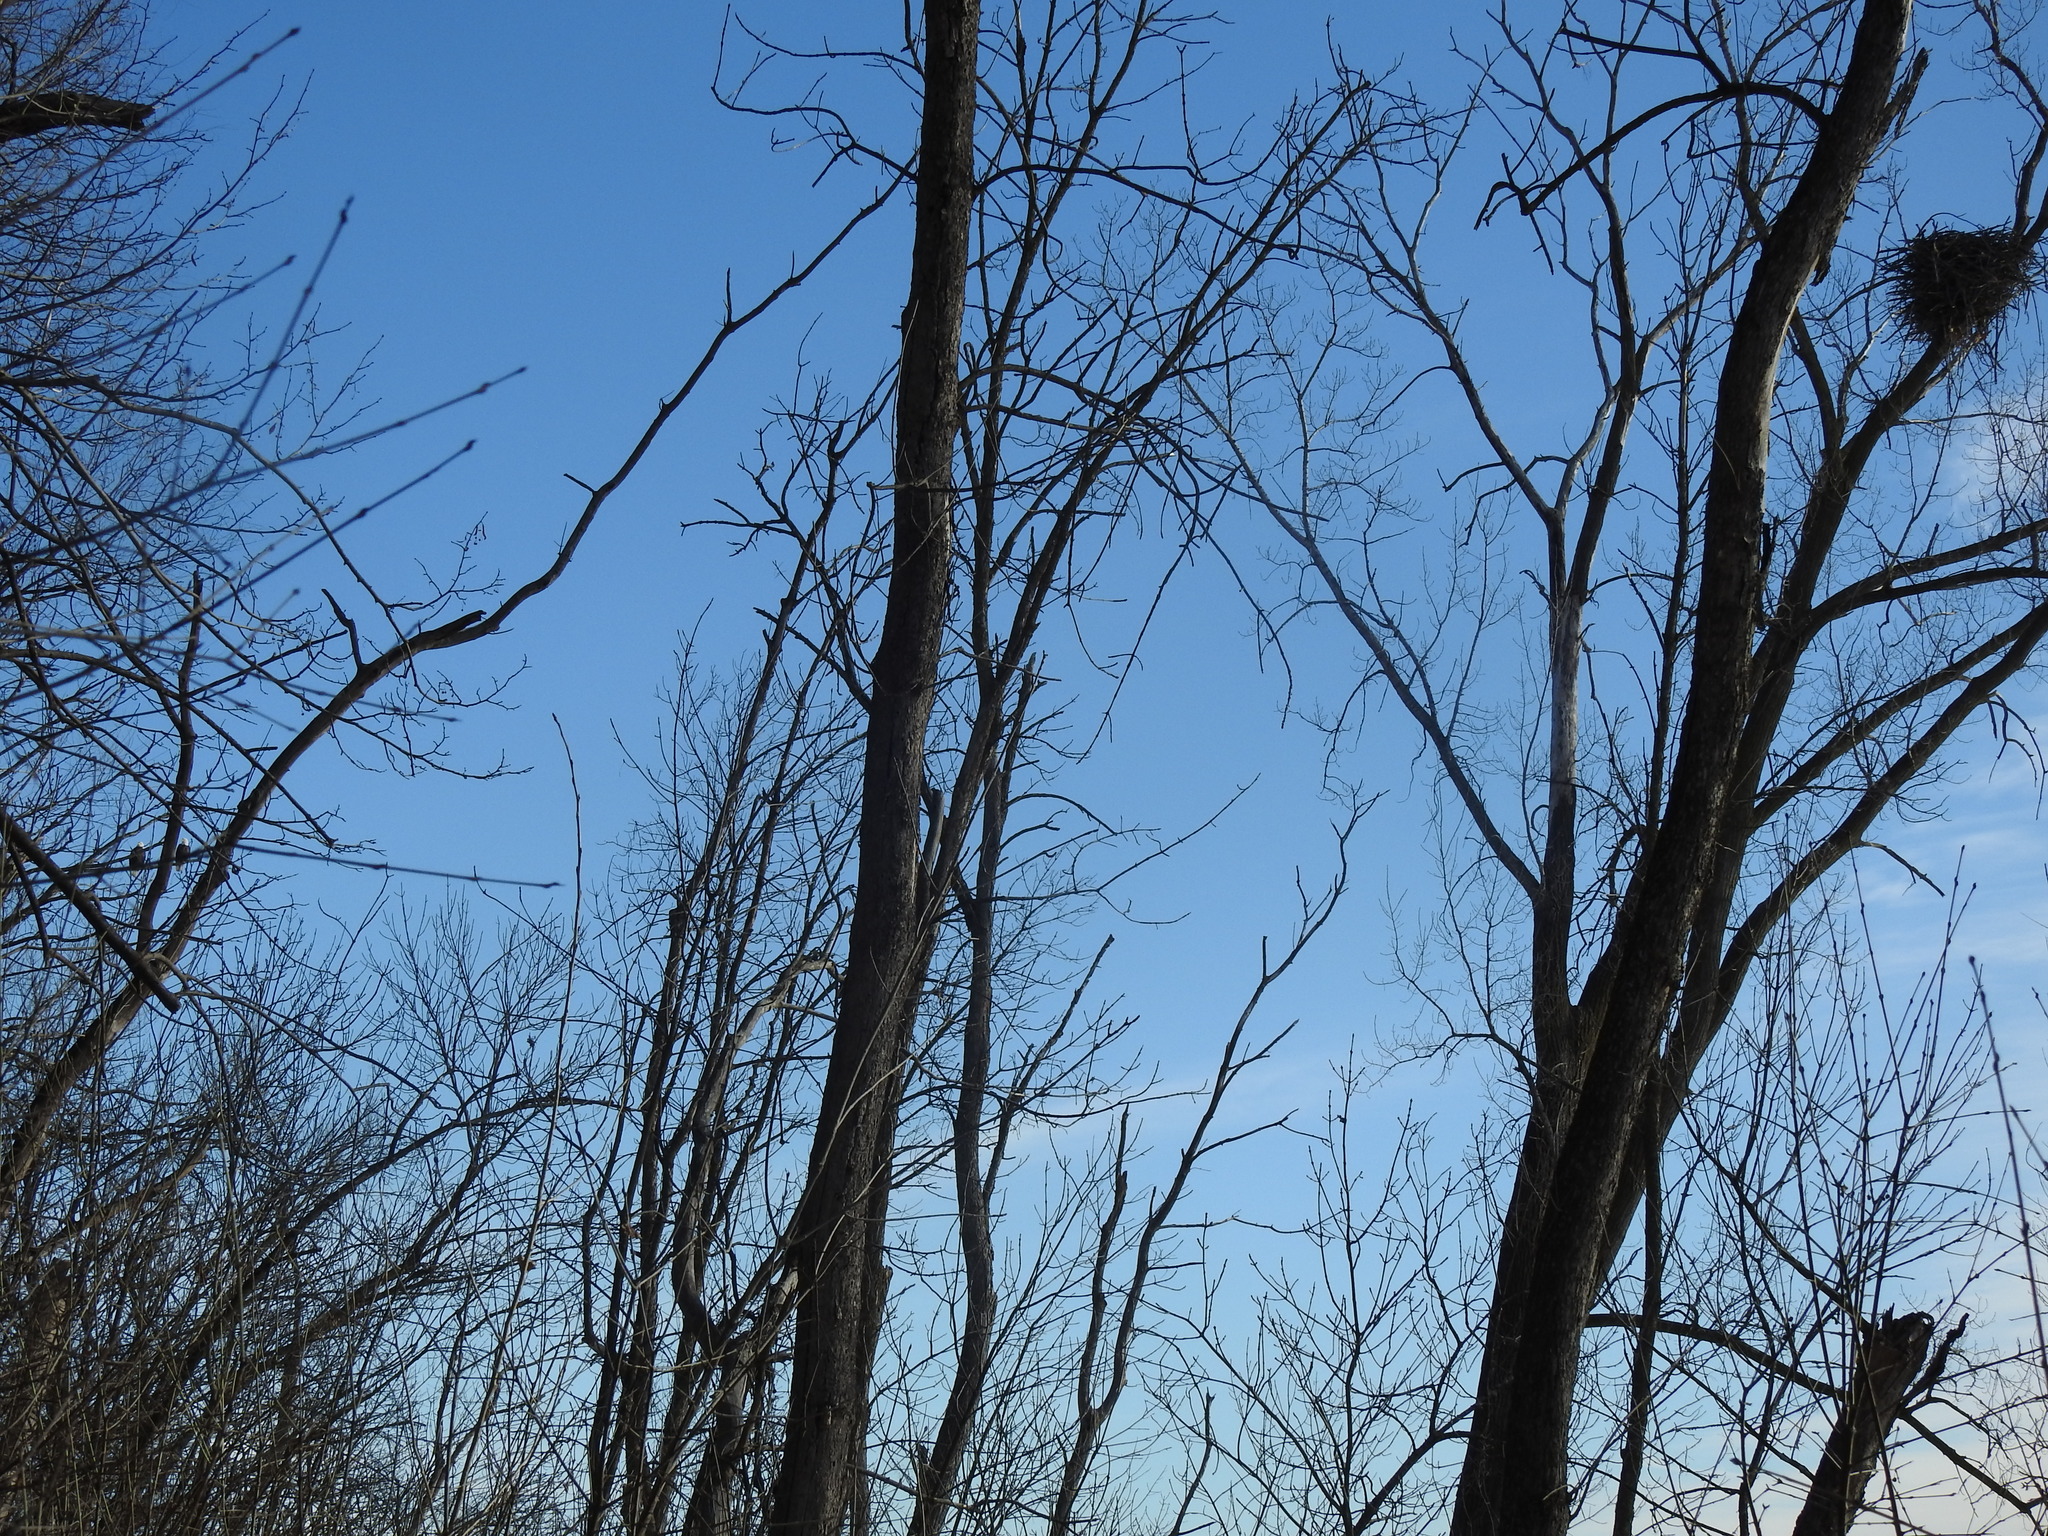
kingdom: Animalia
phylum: Chordata
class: Aves
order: Accipitriformes
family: Accipitridae
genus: Haliaeetus
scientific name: Haliaeetus leucocephalus
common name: Bald eagle
